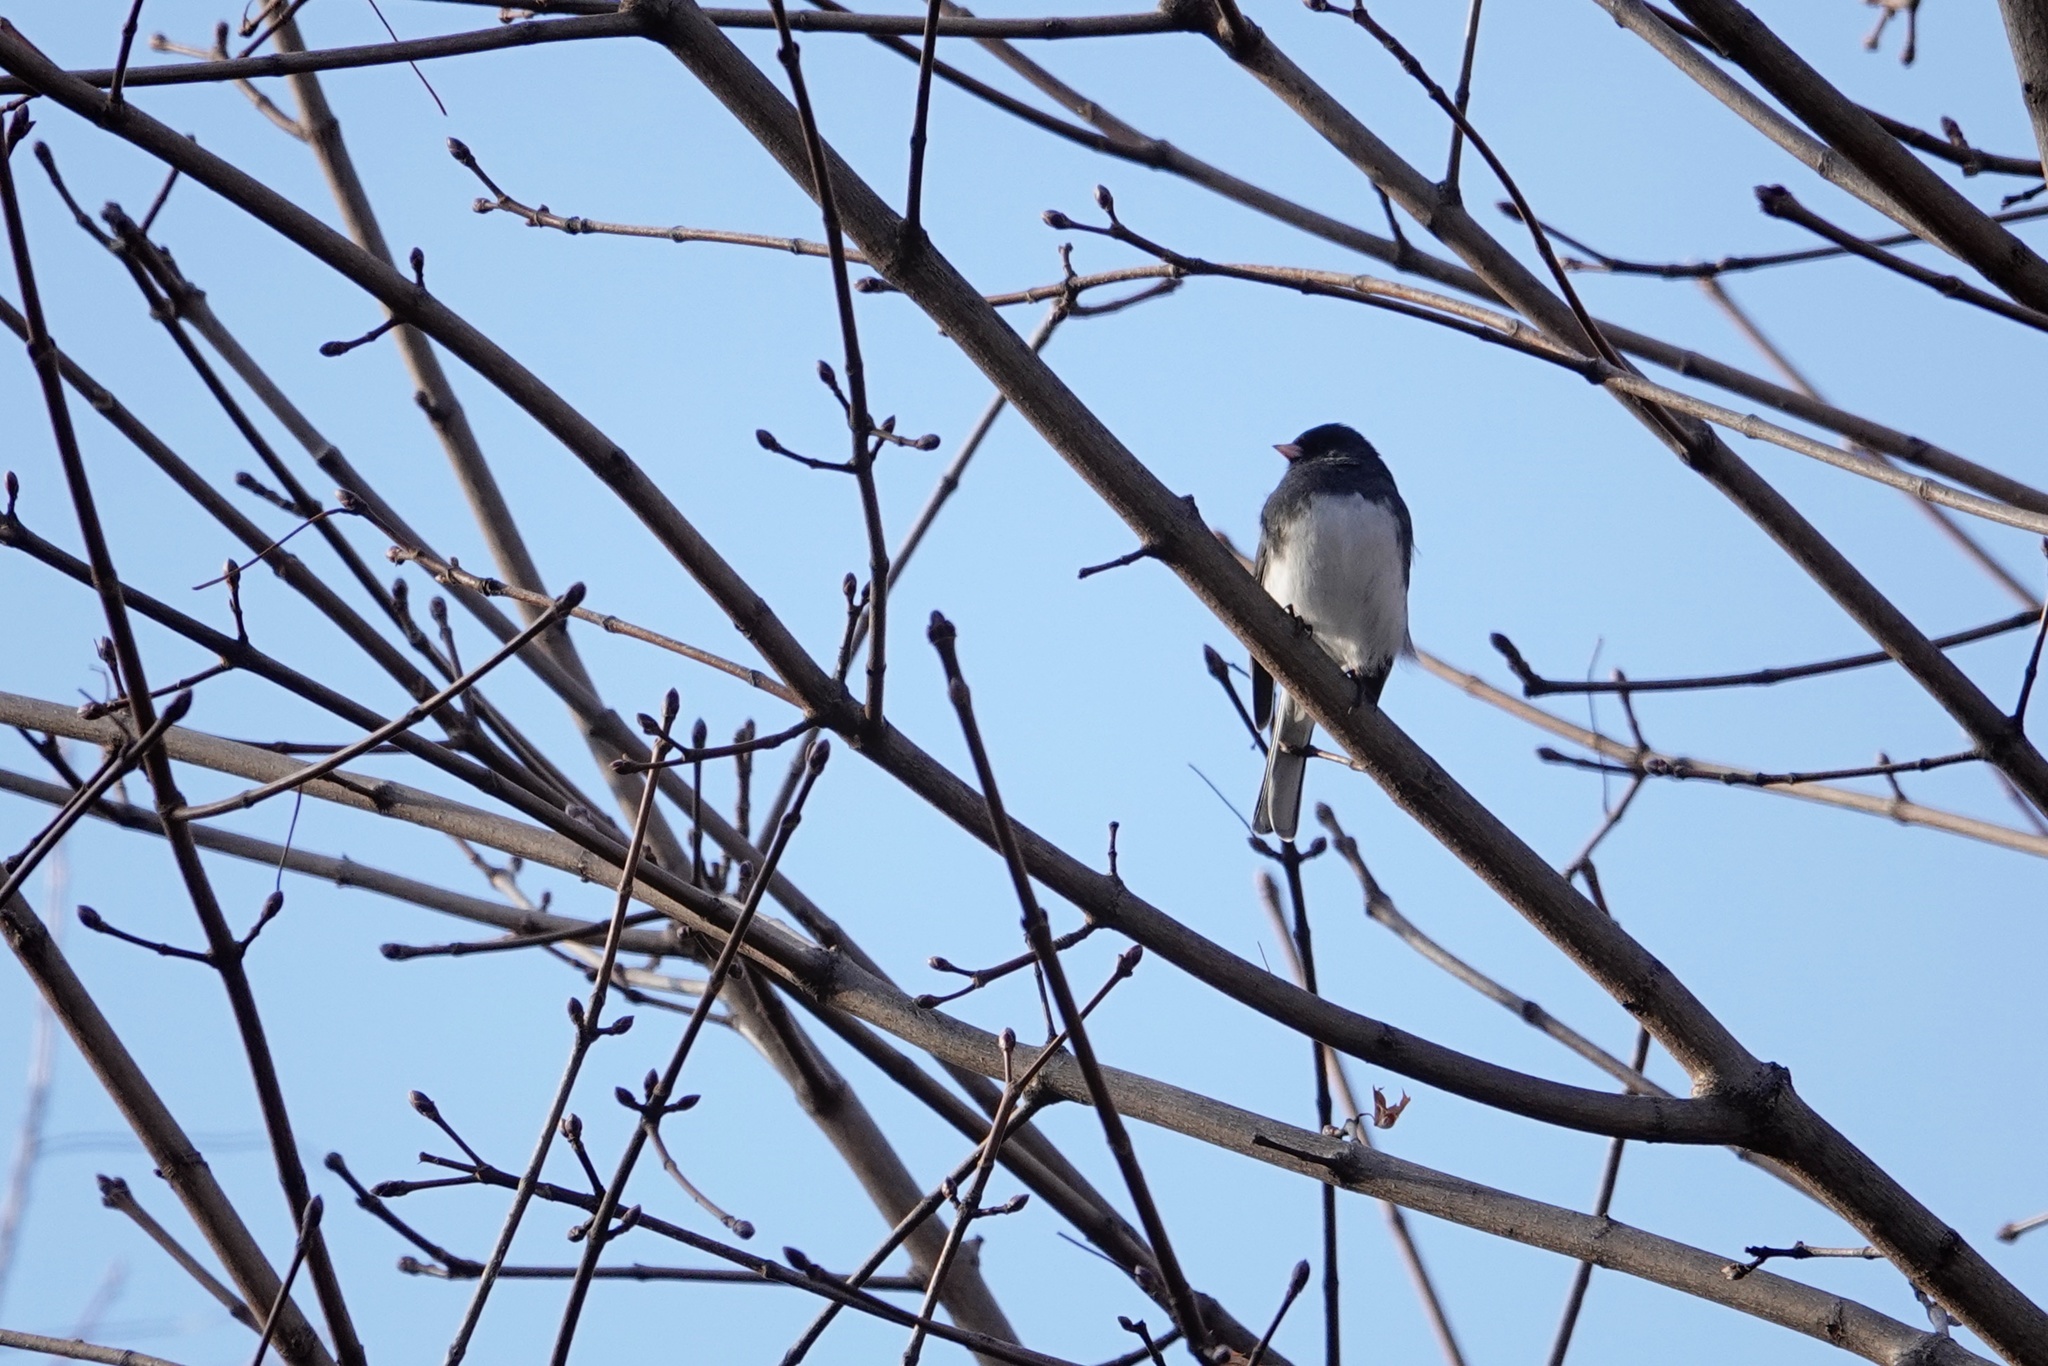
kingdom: Animalia
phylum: Chordata
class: Aves
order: Passeriformes
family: Passerellidae
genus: Junco
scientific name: Junco hyemalis
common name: Dark-eyed junco
